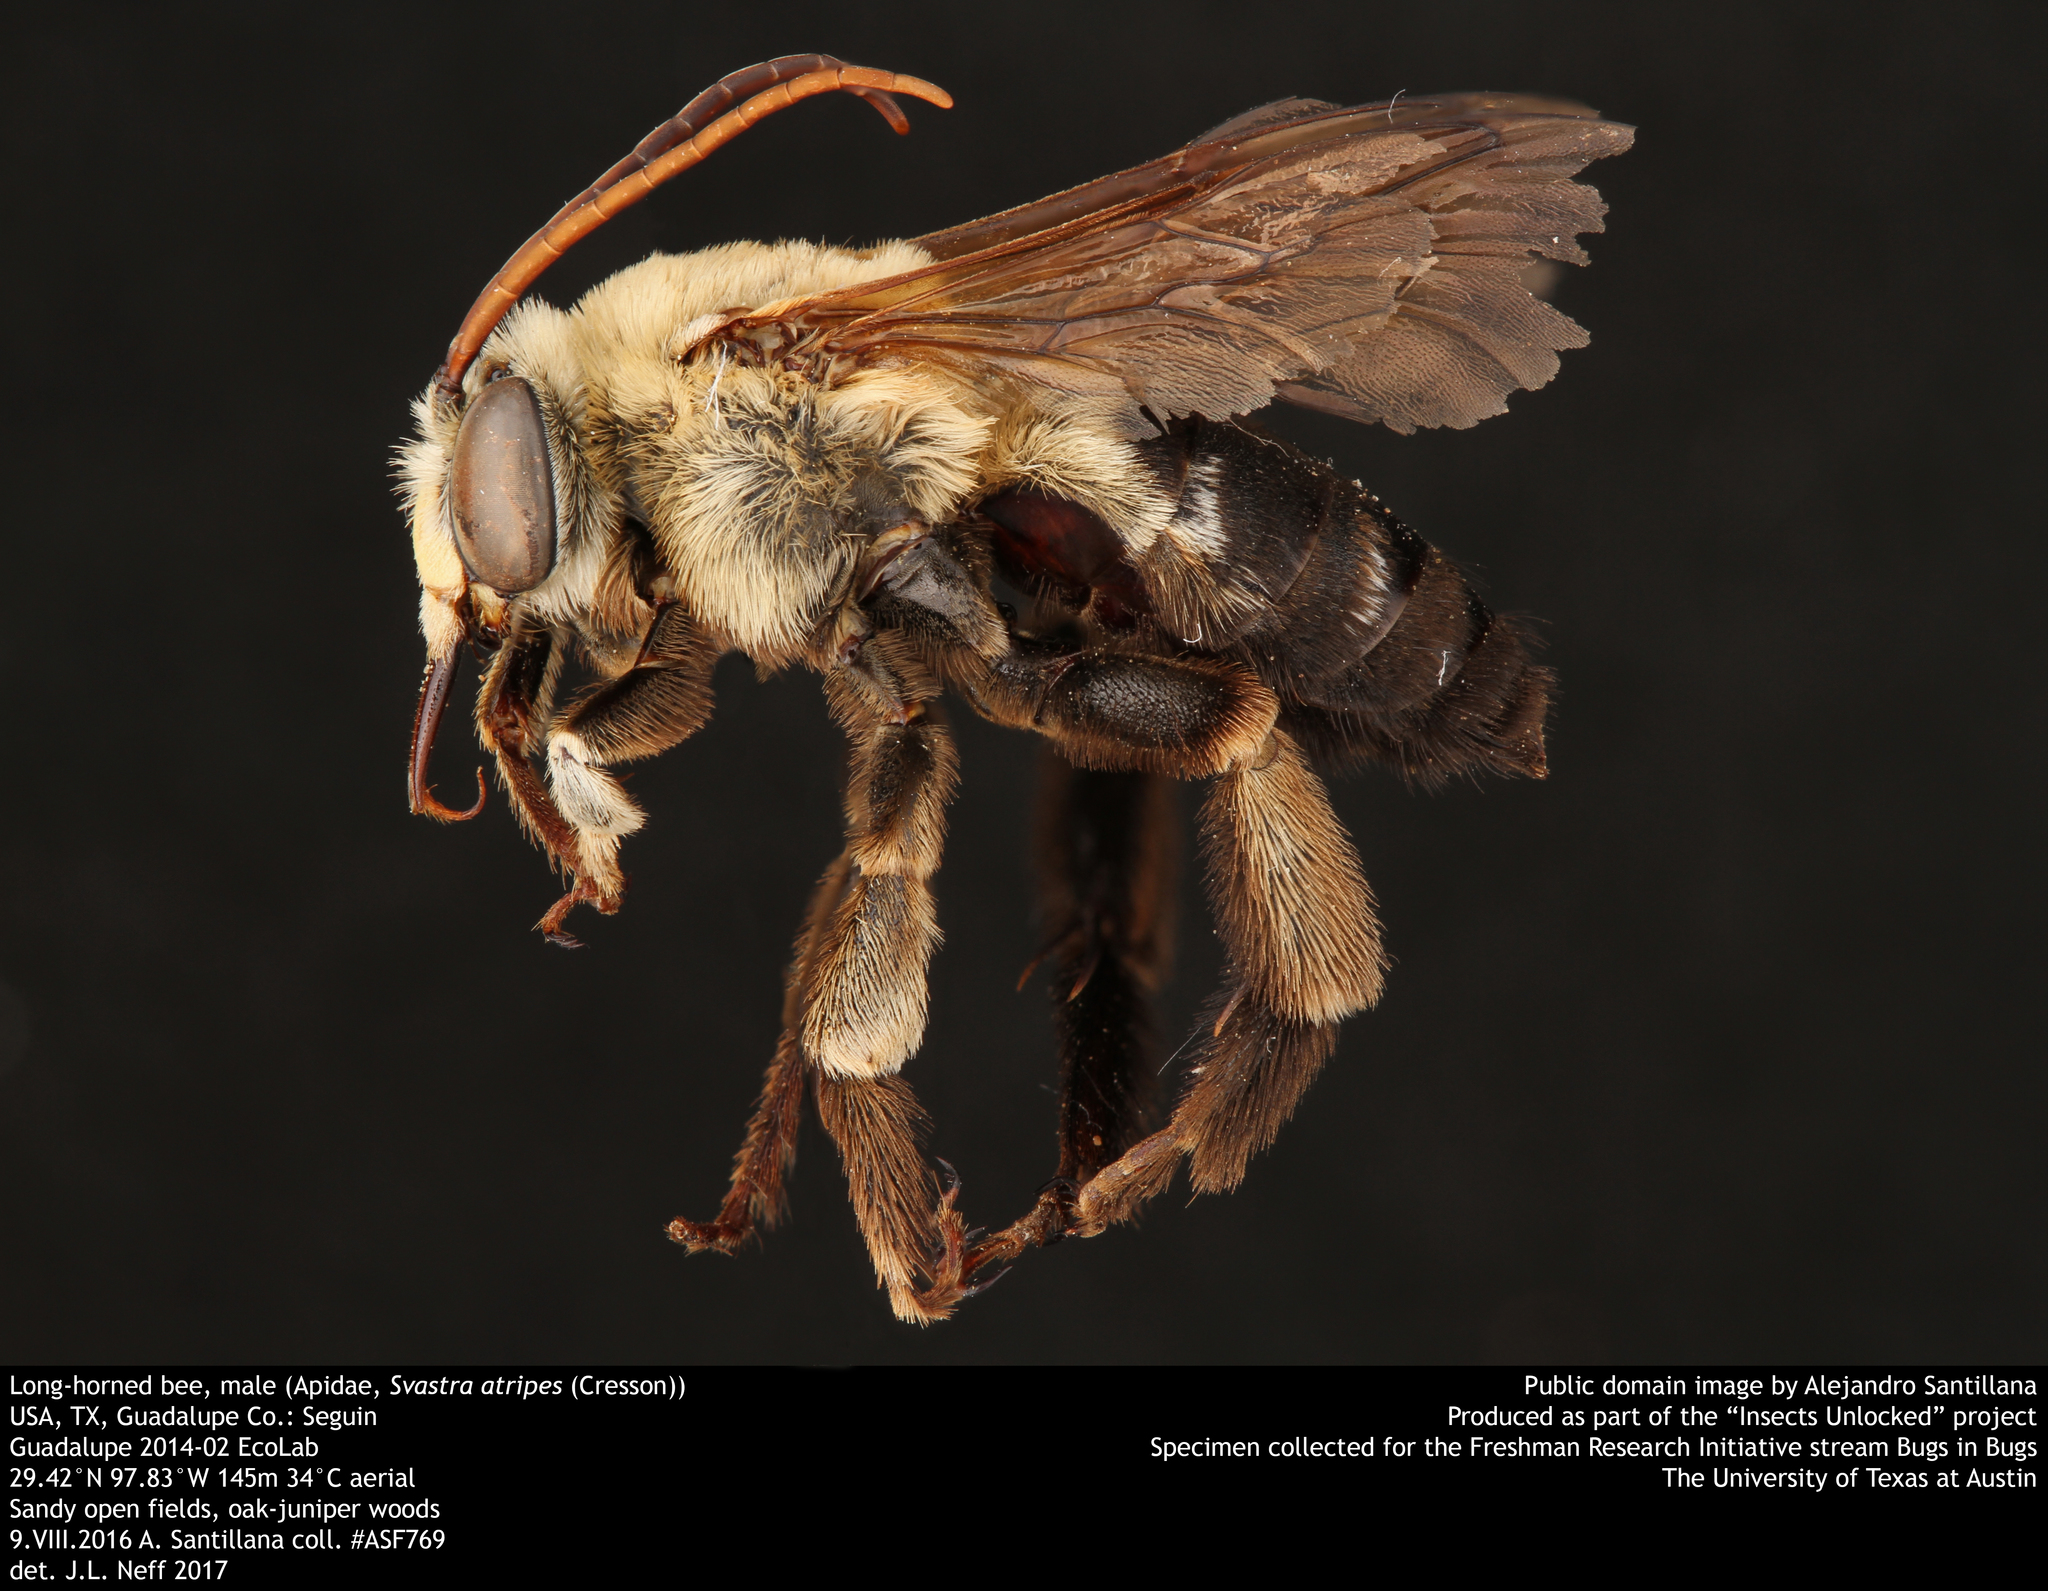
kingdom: Animalia
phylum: Arthropoda
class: Insecta
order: Hymenoptera
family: Apidae
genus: Svastra
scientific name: Svastra atripes
